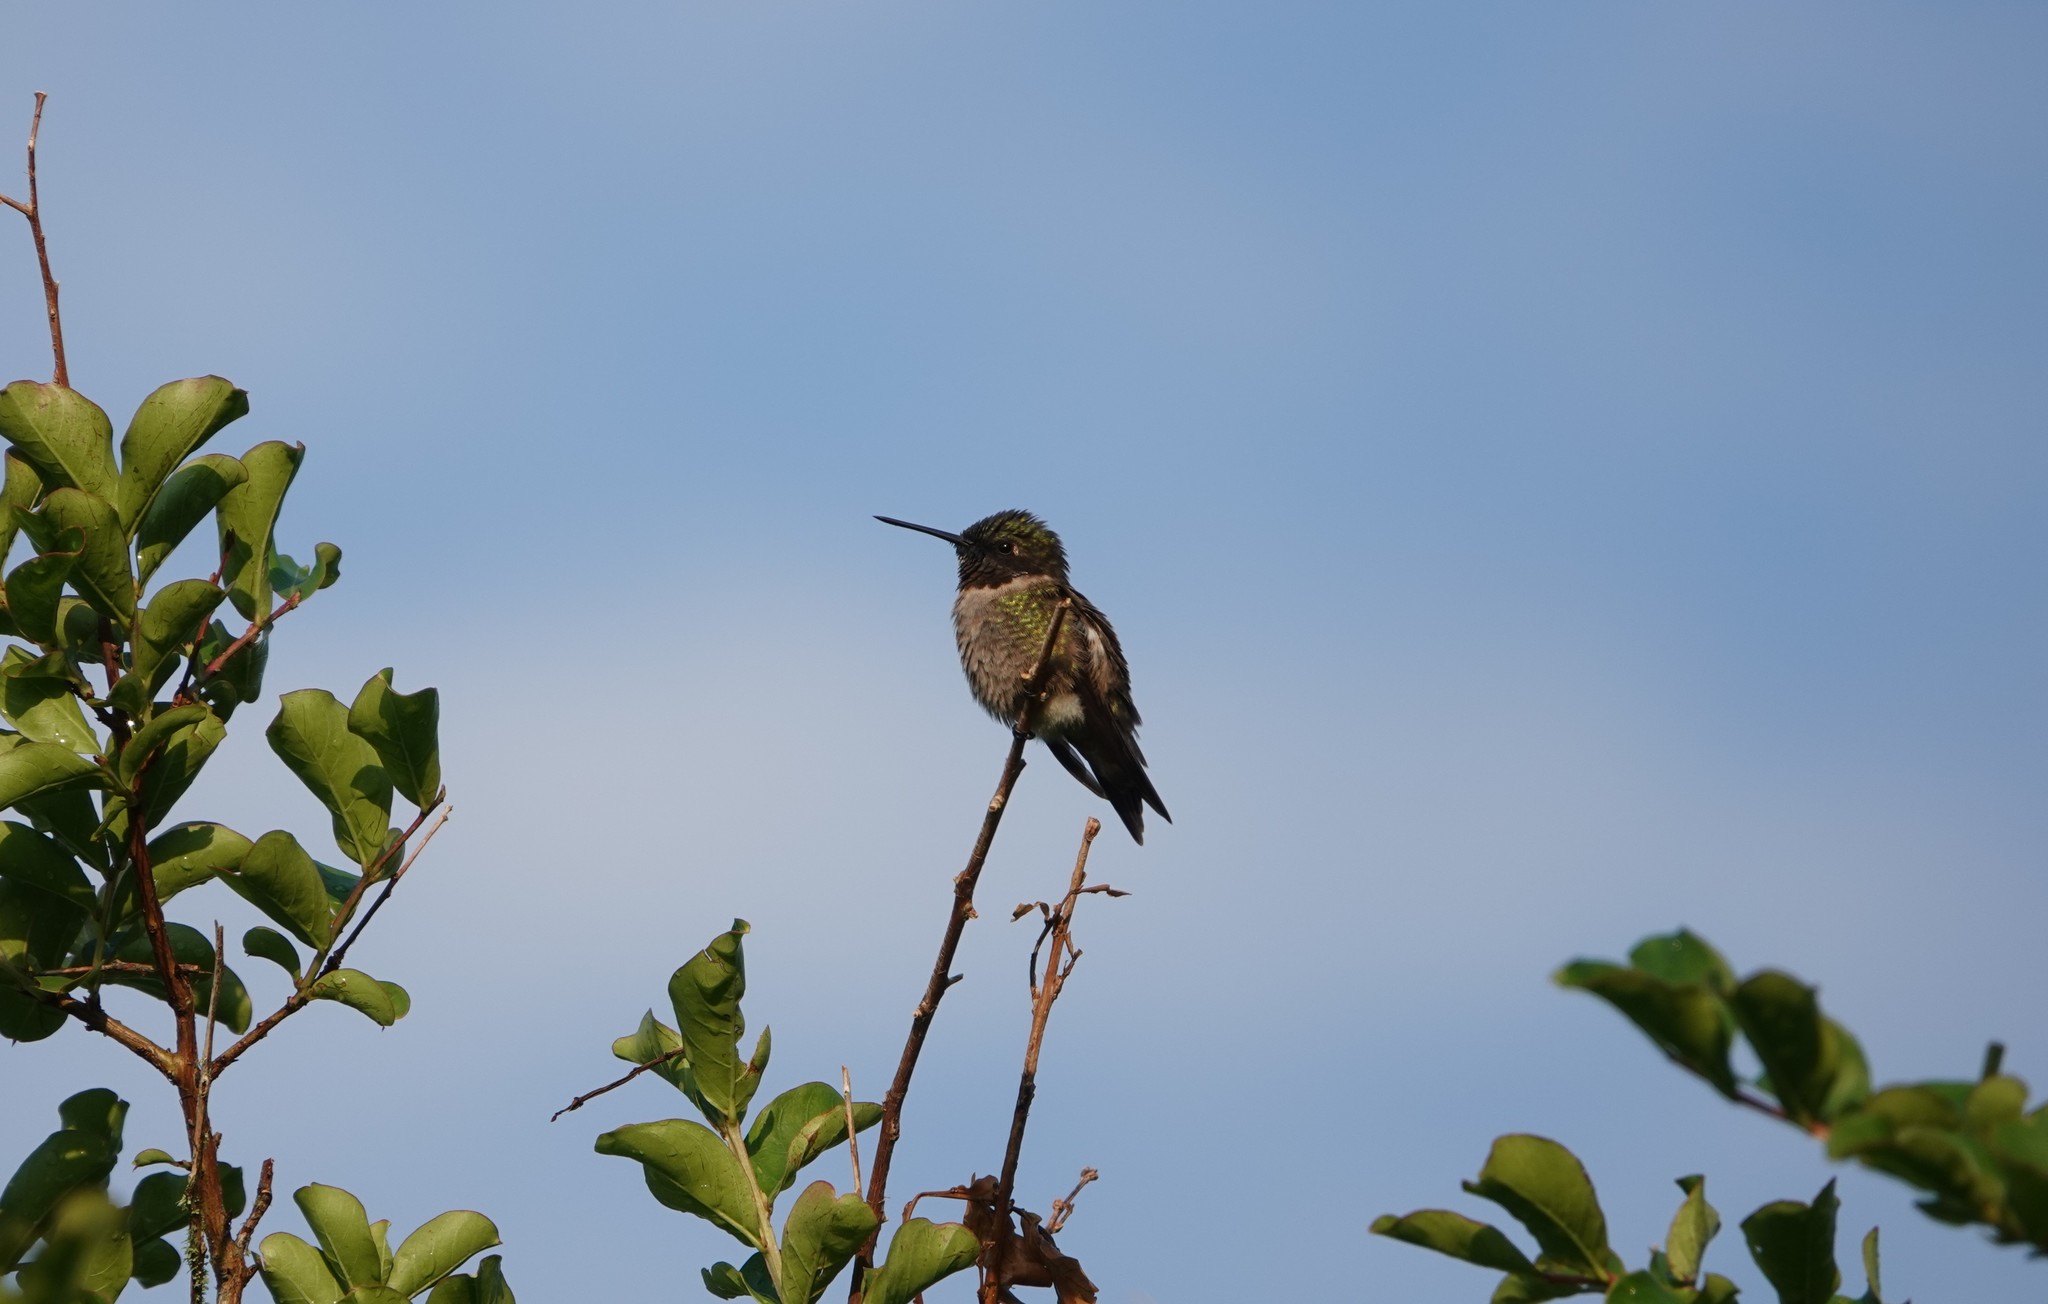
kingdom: Animalia
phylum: Chordata
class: Aves
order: Apodiformes
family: Trochilidae
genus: Archilochus
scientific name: Archilochus colubris
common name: Ruby-throated hummingbird
